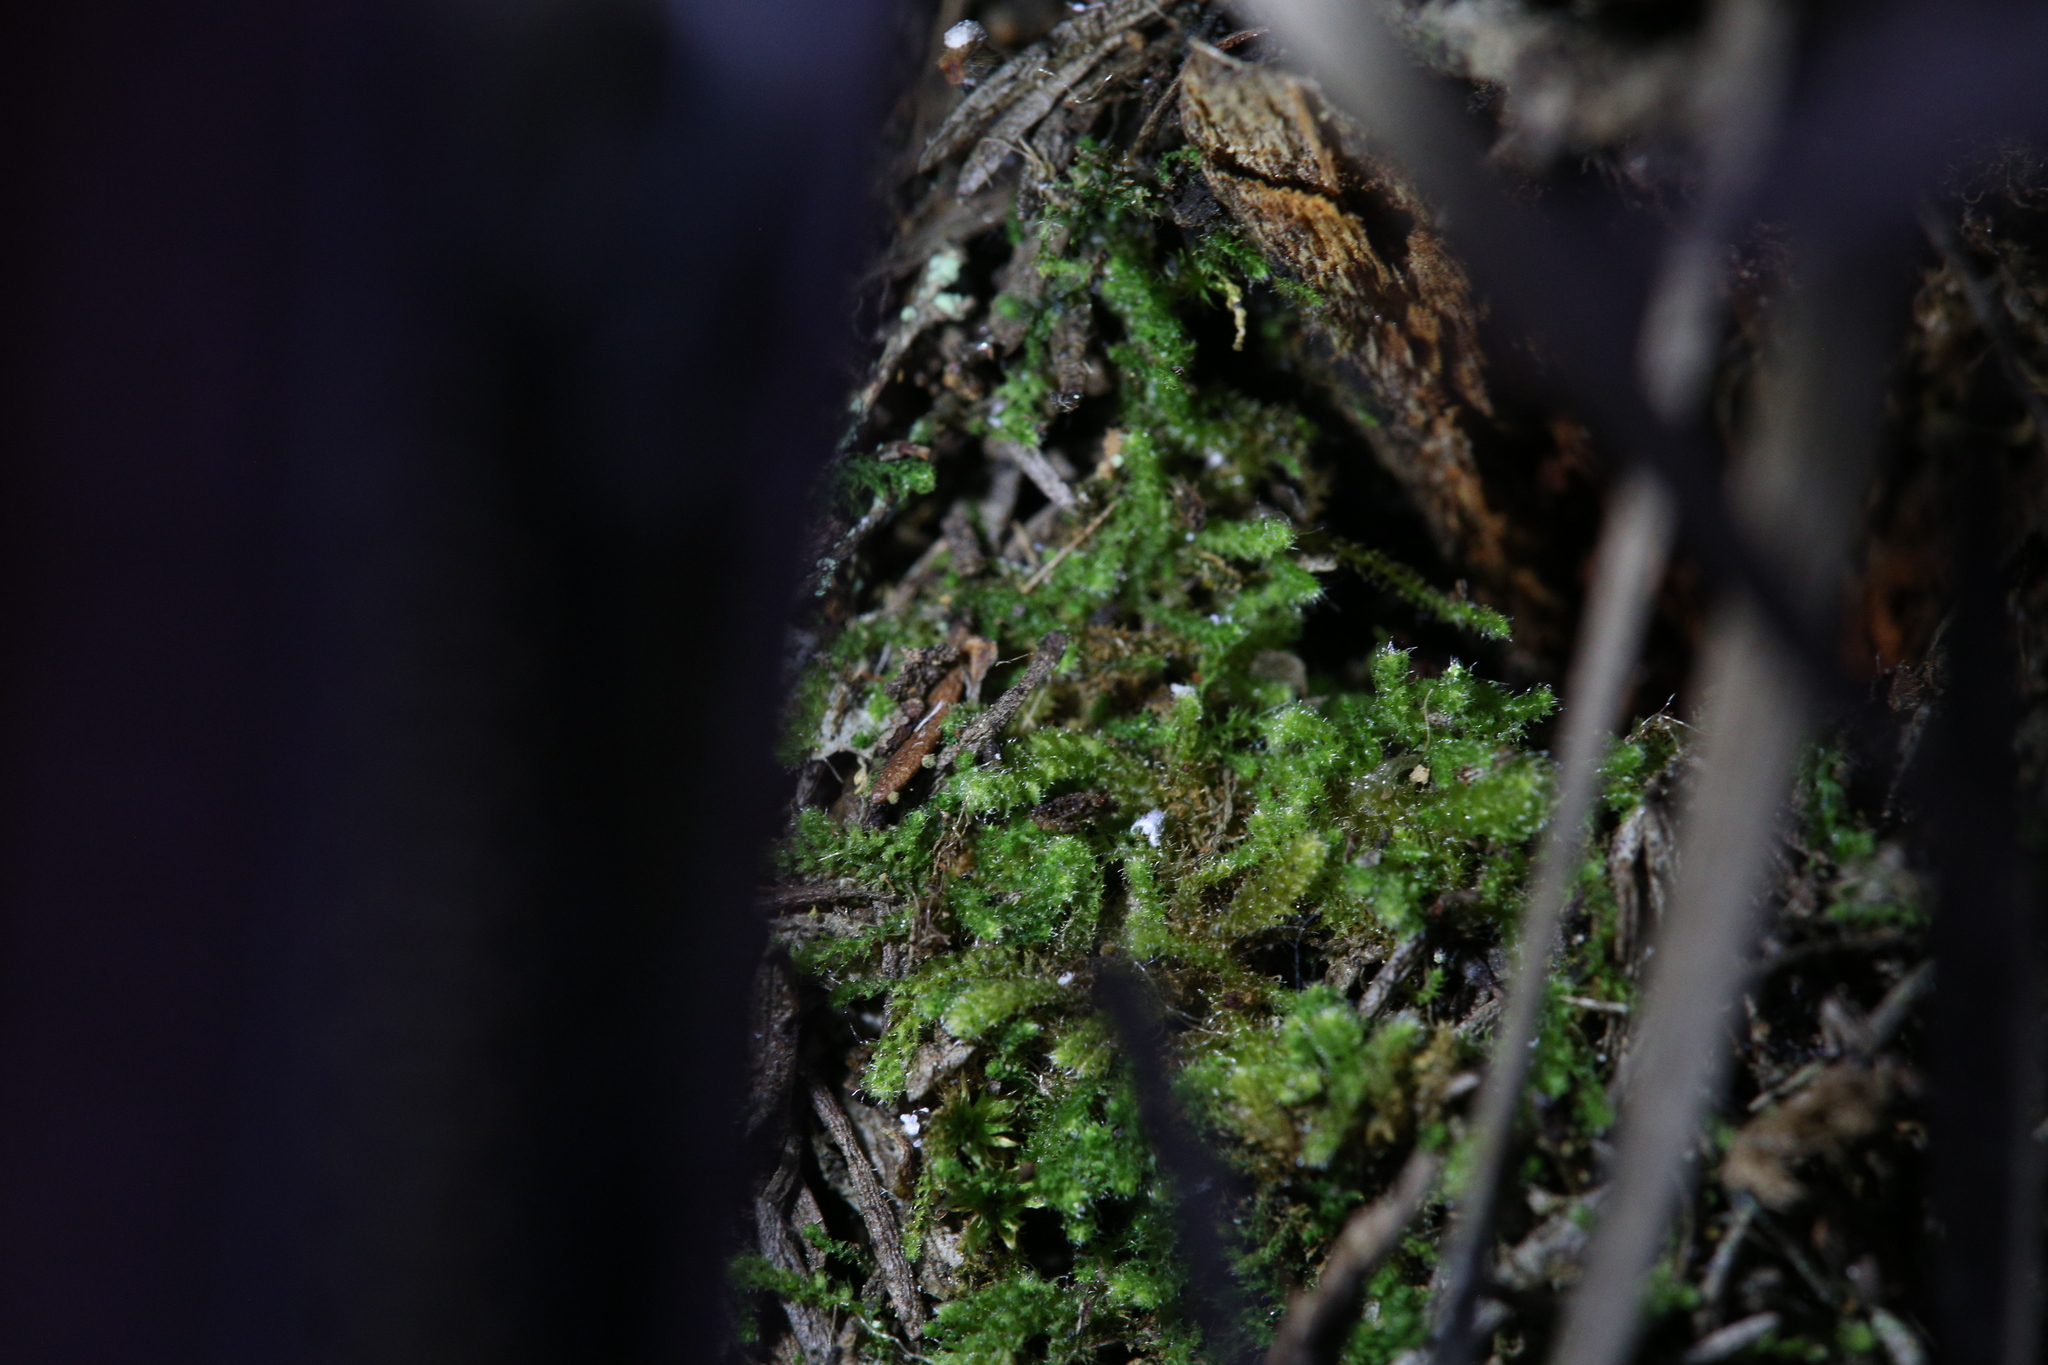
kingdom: Plantae
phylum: Marchantiophyta
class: Jungermanniopsida
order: Jungermanniales
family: Cephaloziellaceae
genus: Chaetophyllopsis
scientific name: Chaetophyllopsis whiteleggei
